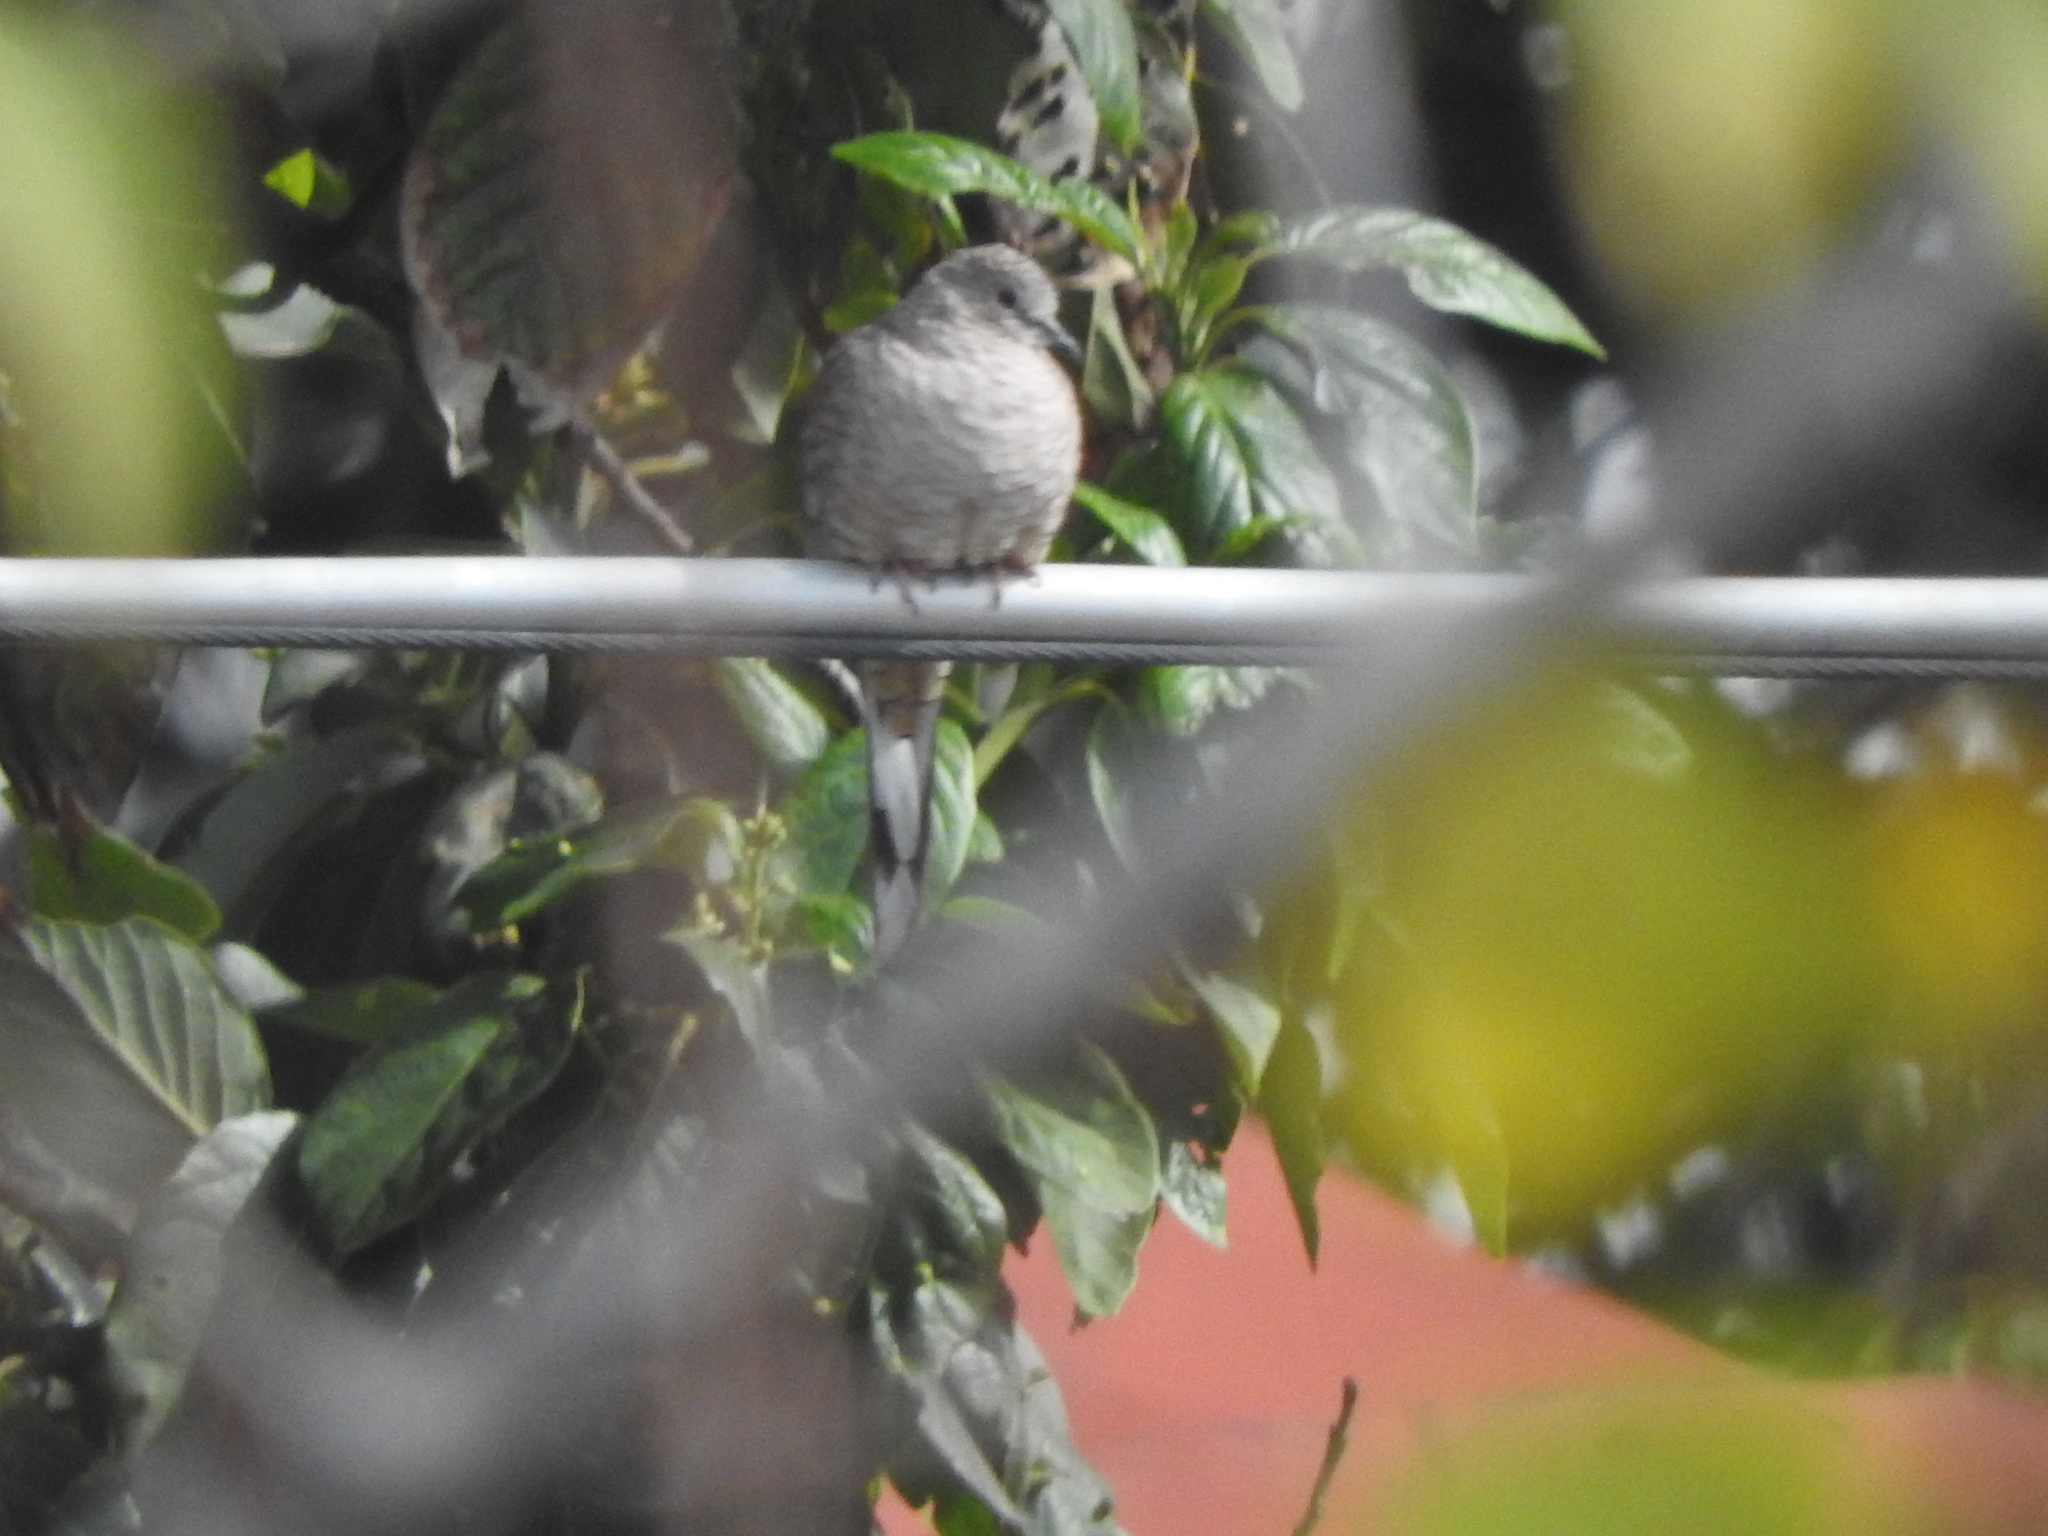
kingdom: Animalia
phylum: Chordata
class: Aves
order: Columbiformes
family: Columbidae
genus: Columbina
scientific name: Columbina inca
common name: Inca dove
